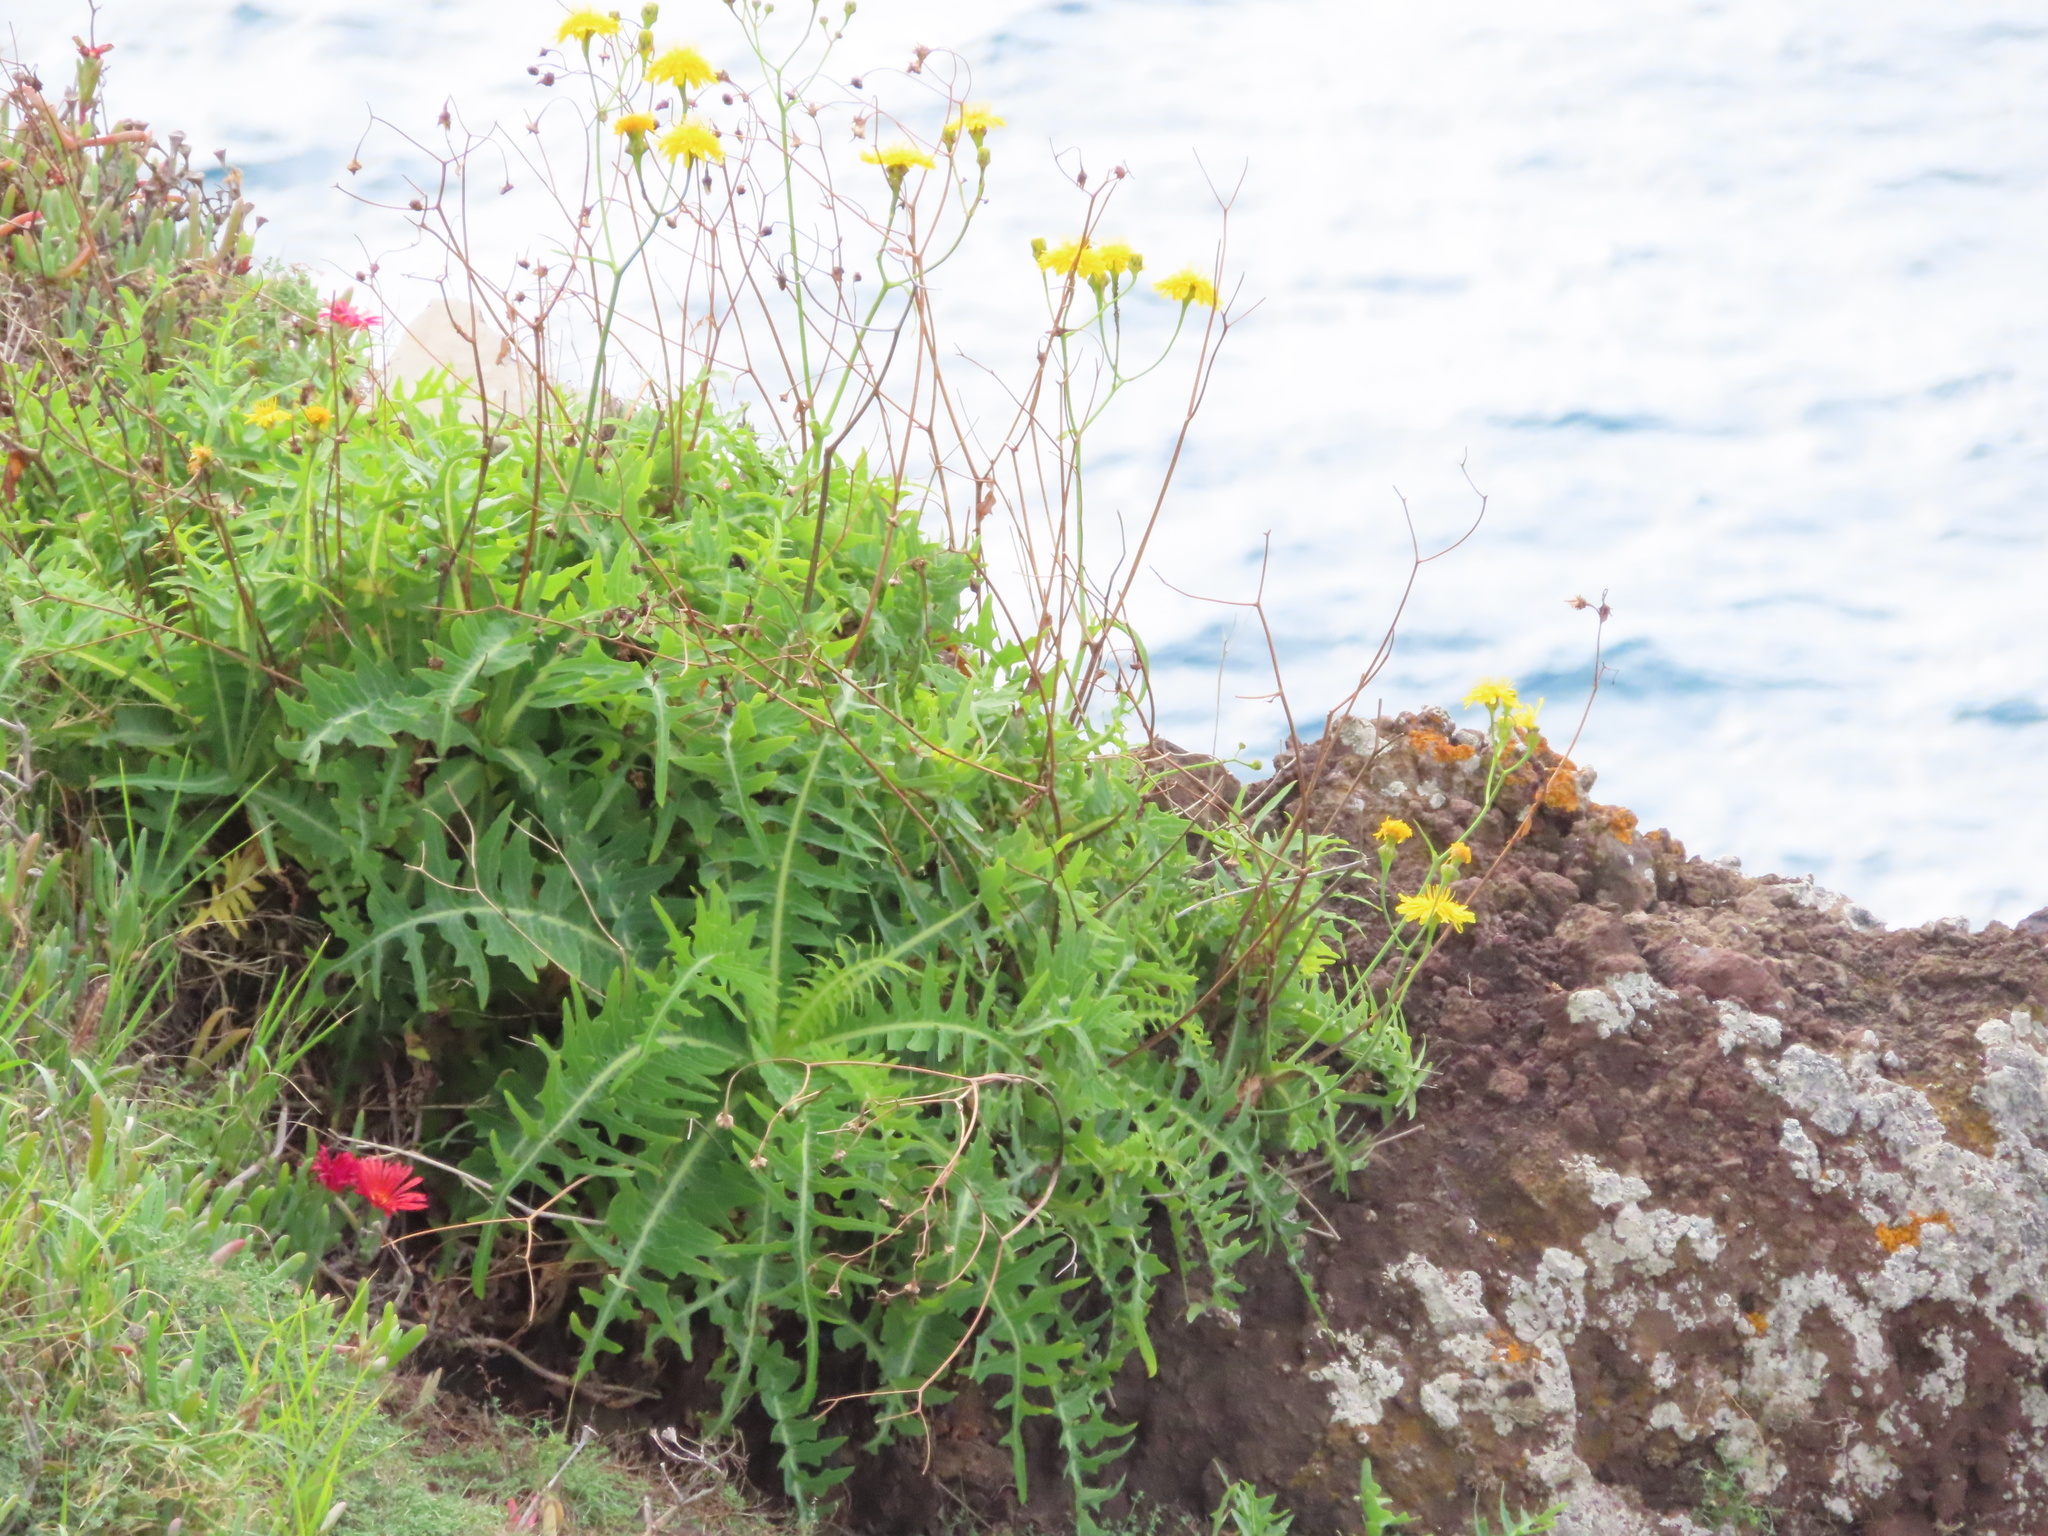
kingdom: Plantae
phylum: Tracheophyta
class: Magnoliopsida
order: Asterales
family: Asteraceae
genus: Sonchus
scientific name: Sonchus ustulatus
